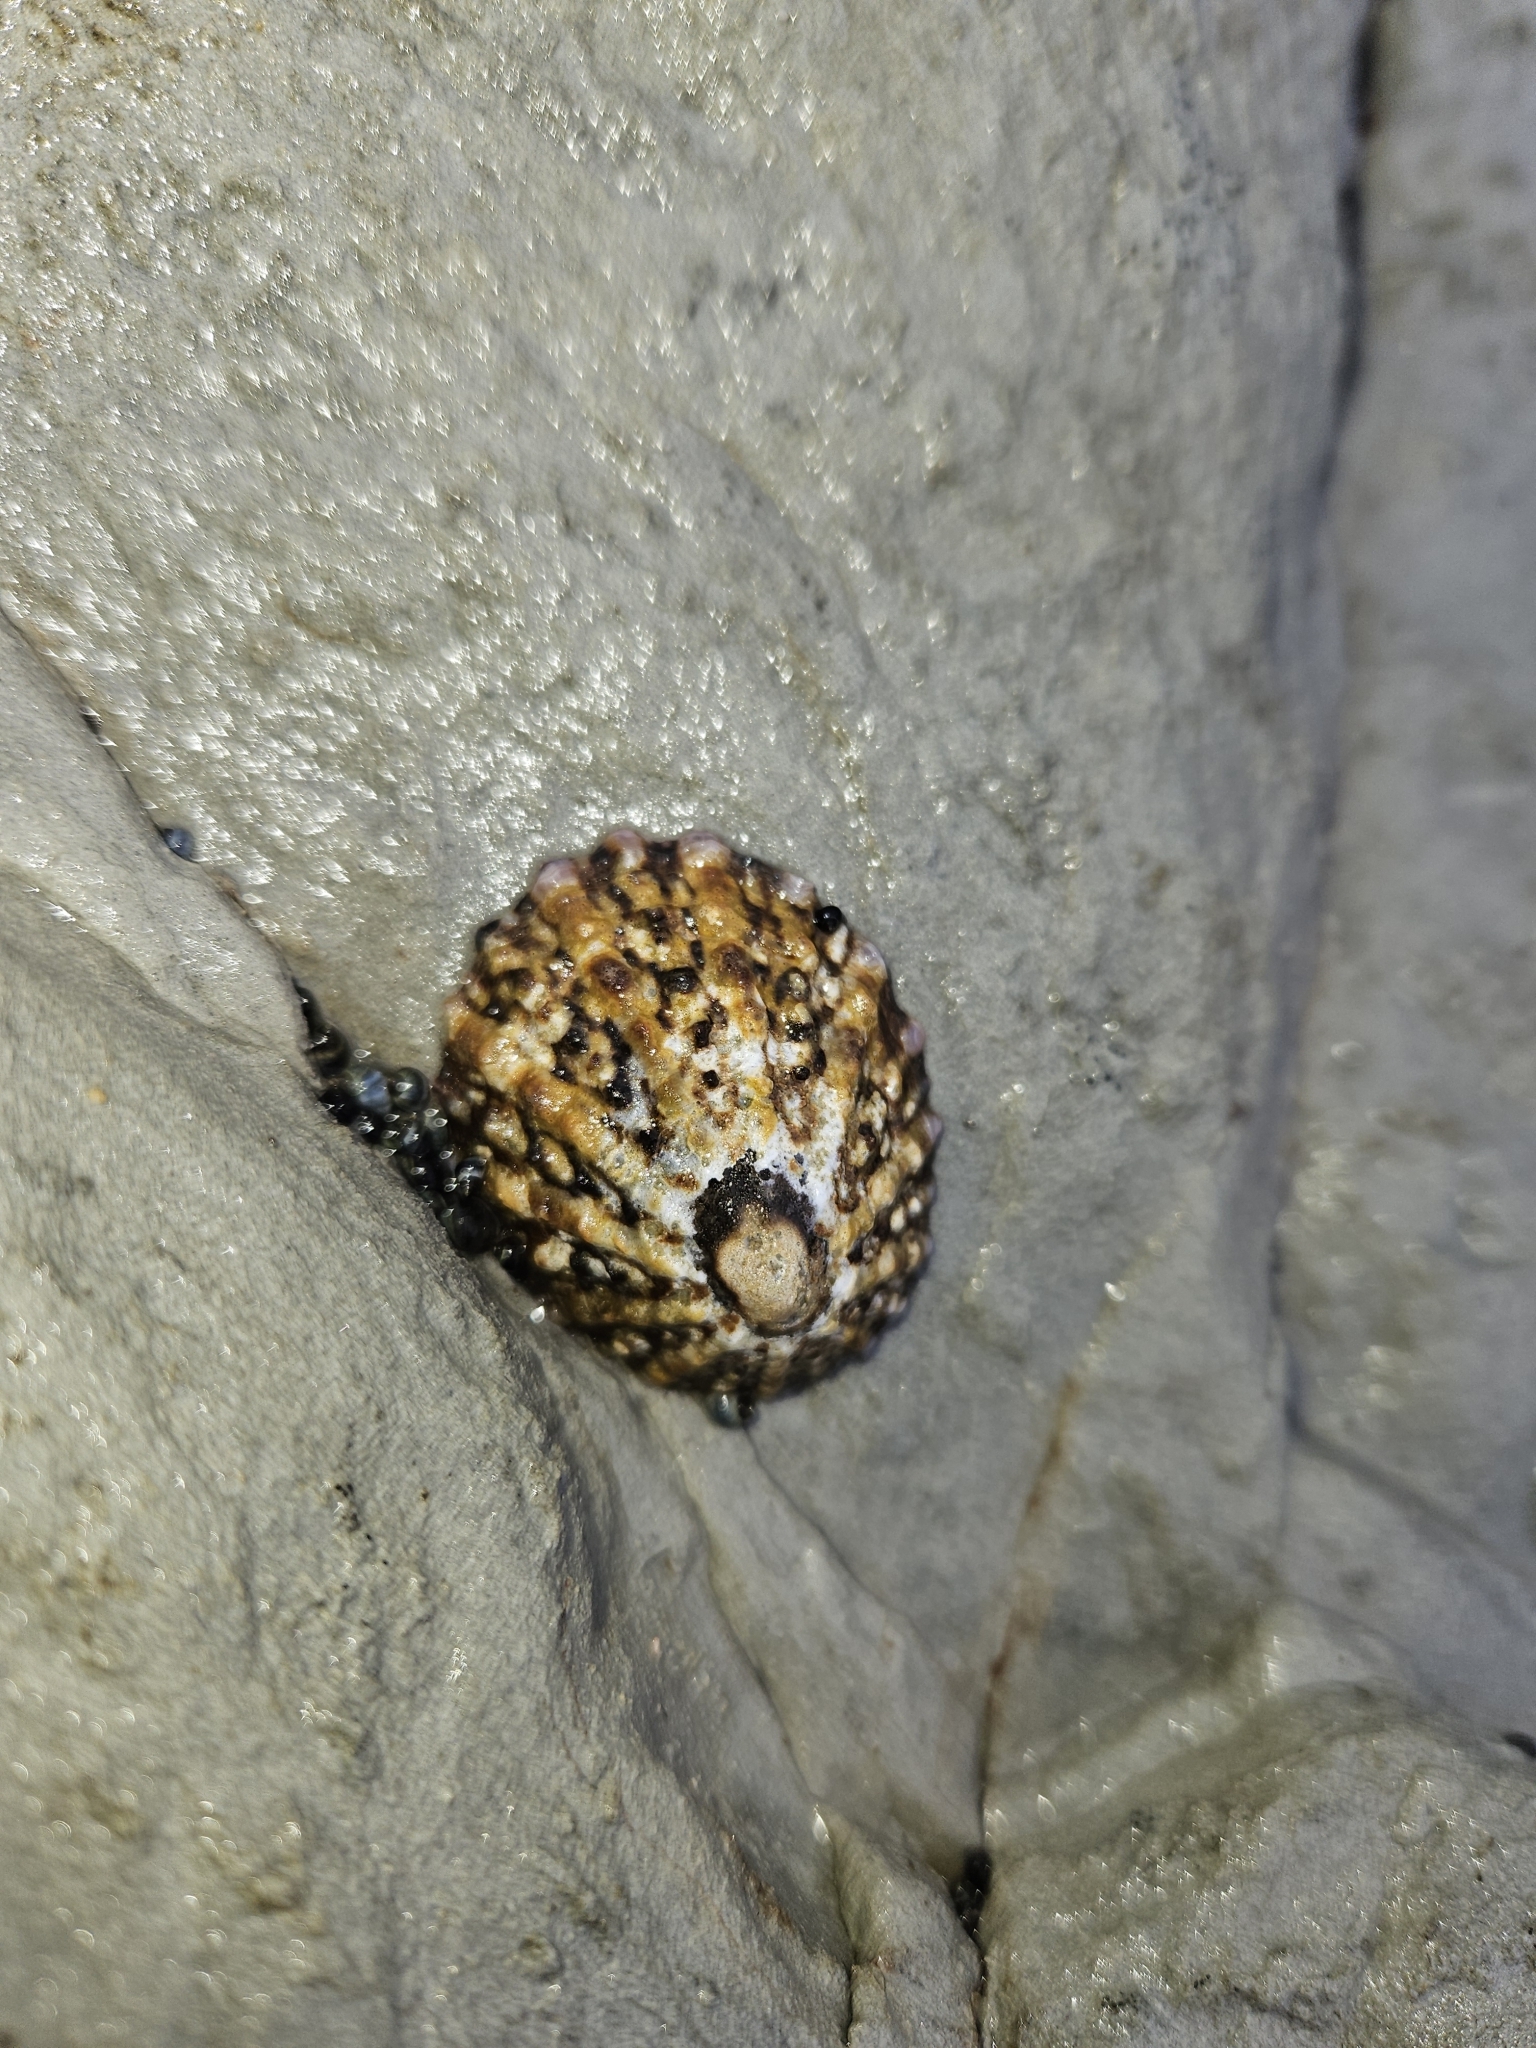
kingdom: Animalia
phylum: Mollusca
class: Gastropoda
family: Nacellidae
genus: Cellana
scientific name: Cellana ornata
